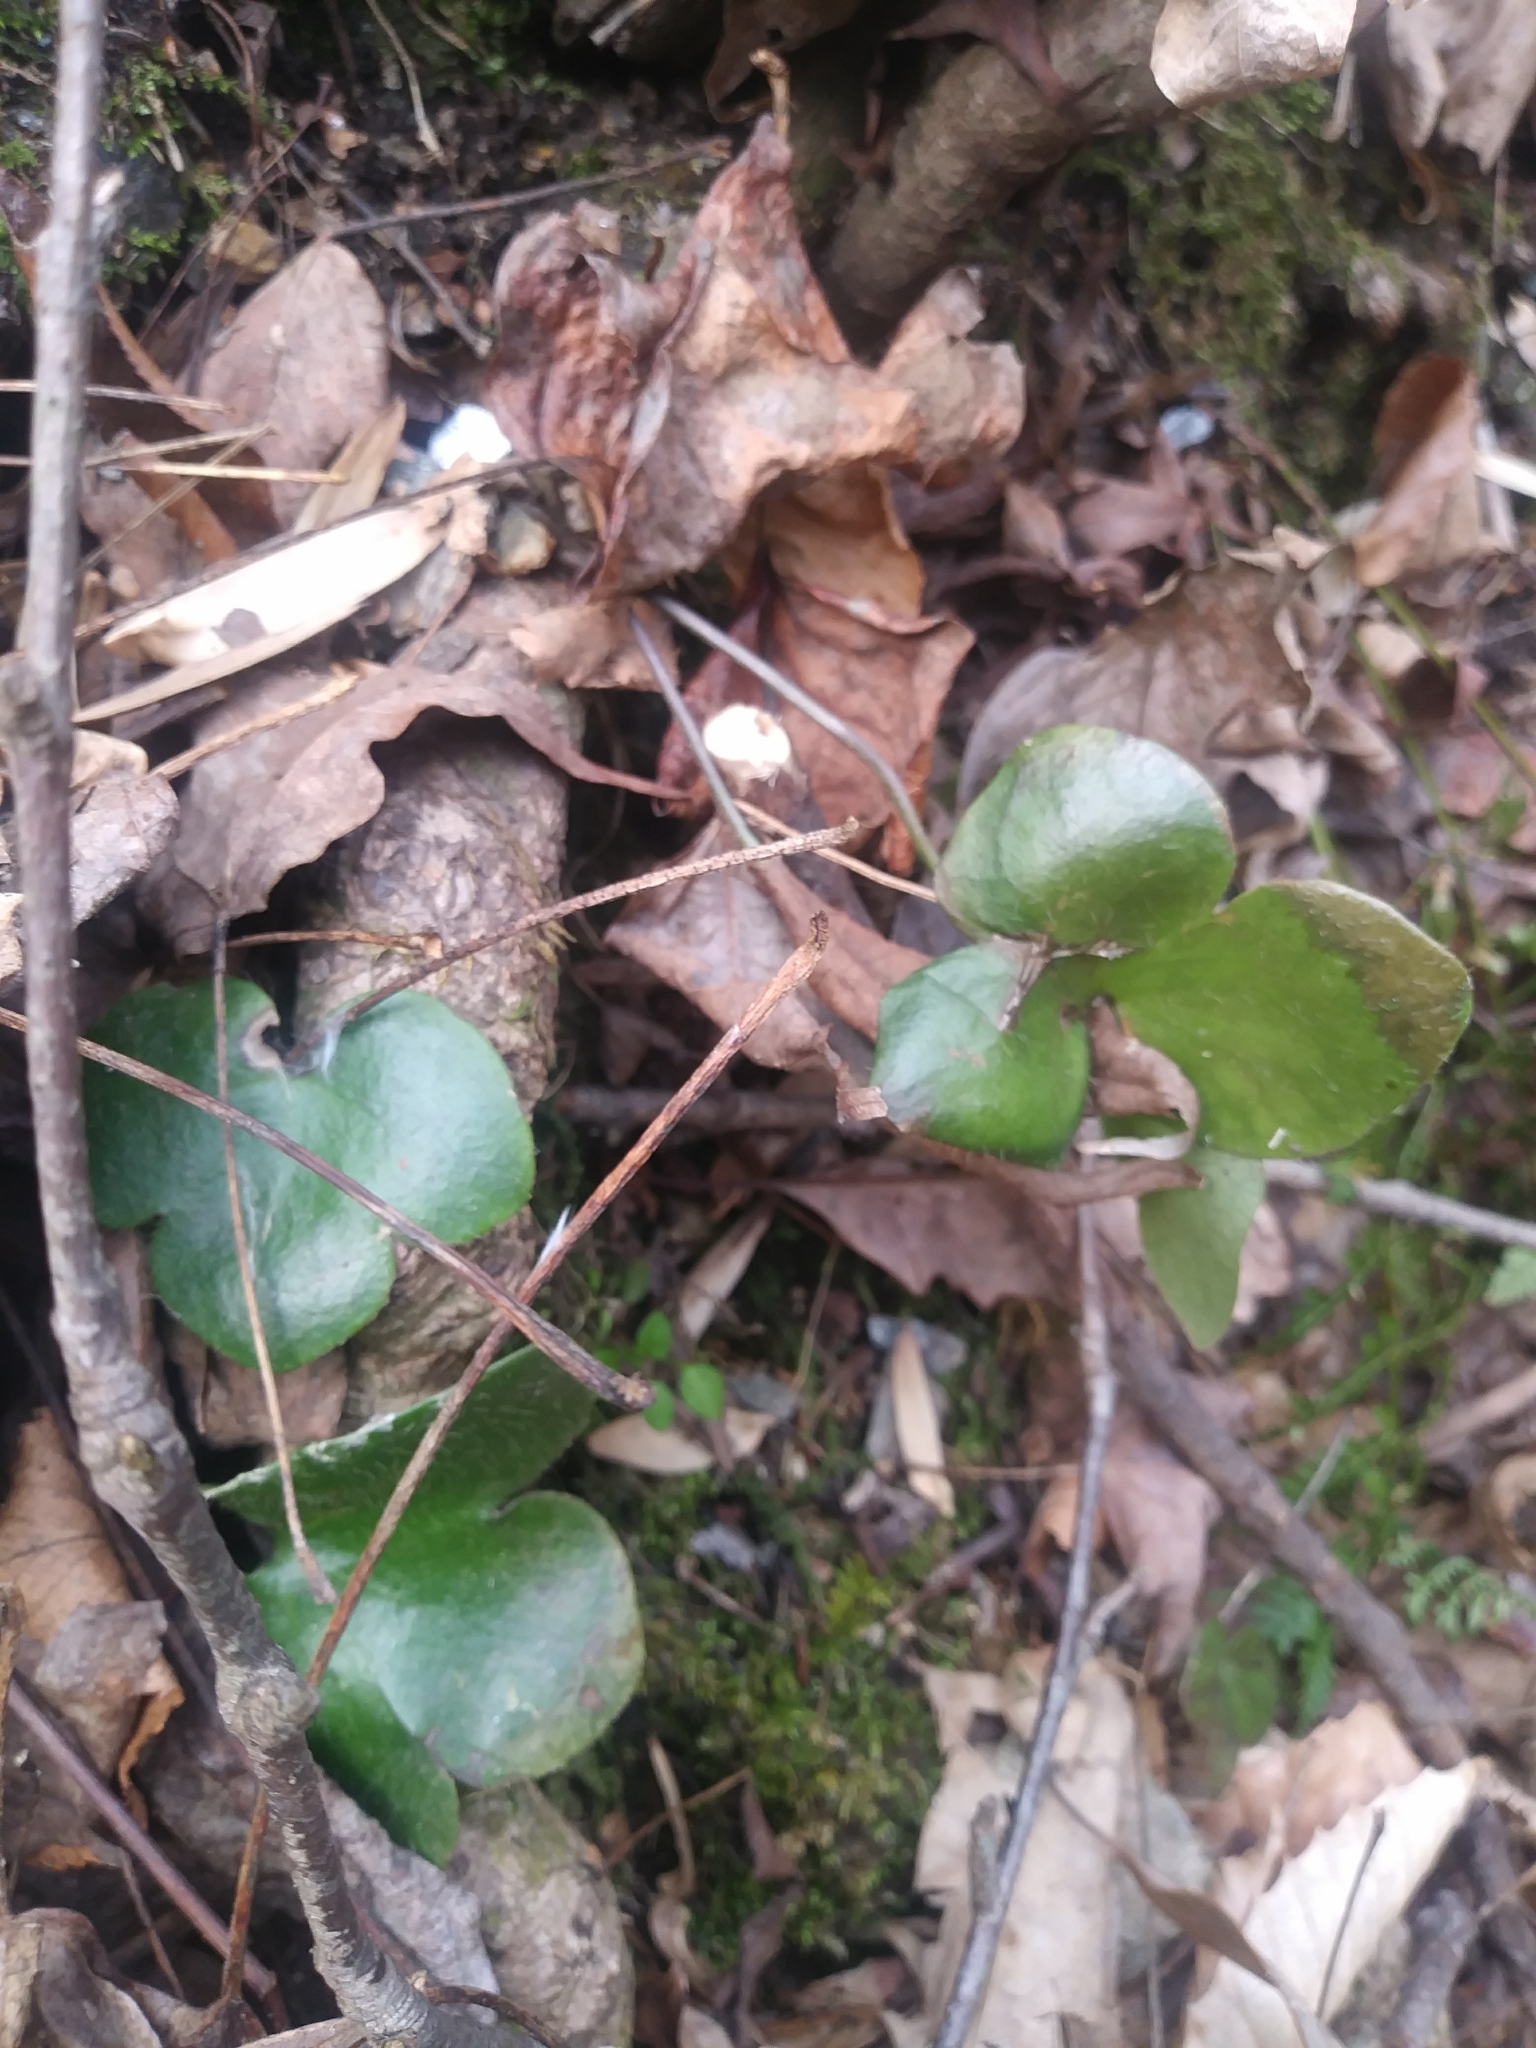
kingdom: Plantae
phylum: Tracheophyta
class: Magnoliopsida
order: Ranunculales
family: Ranunculaceae
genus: Hepatica
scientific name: Hepatica americana
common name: American hepatica
